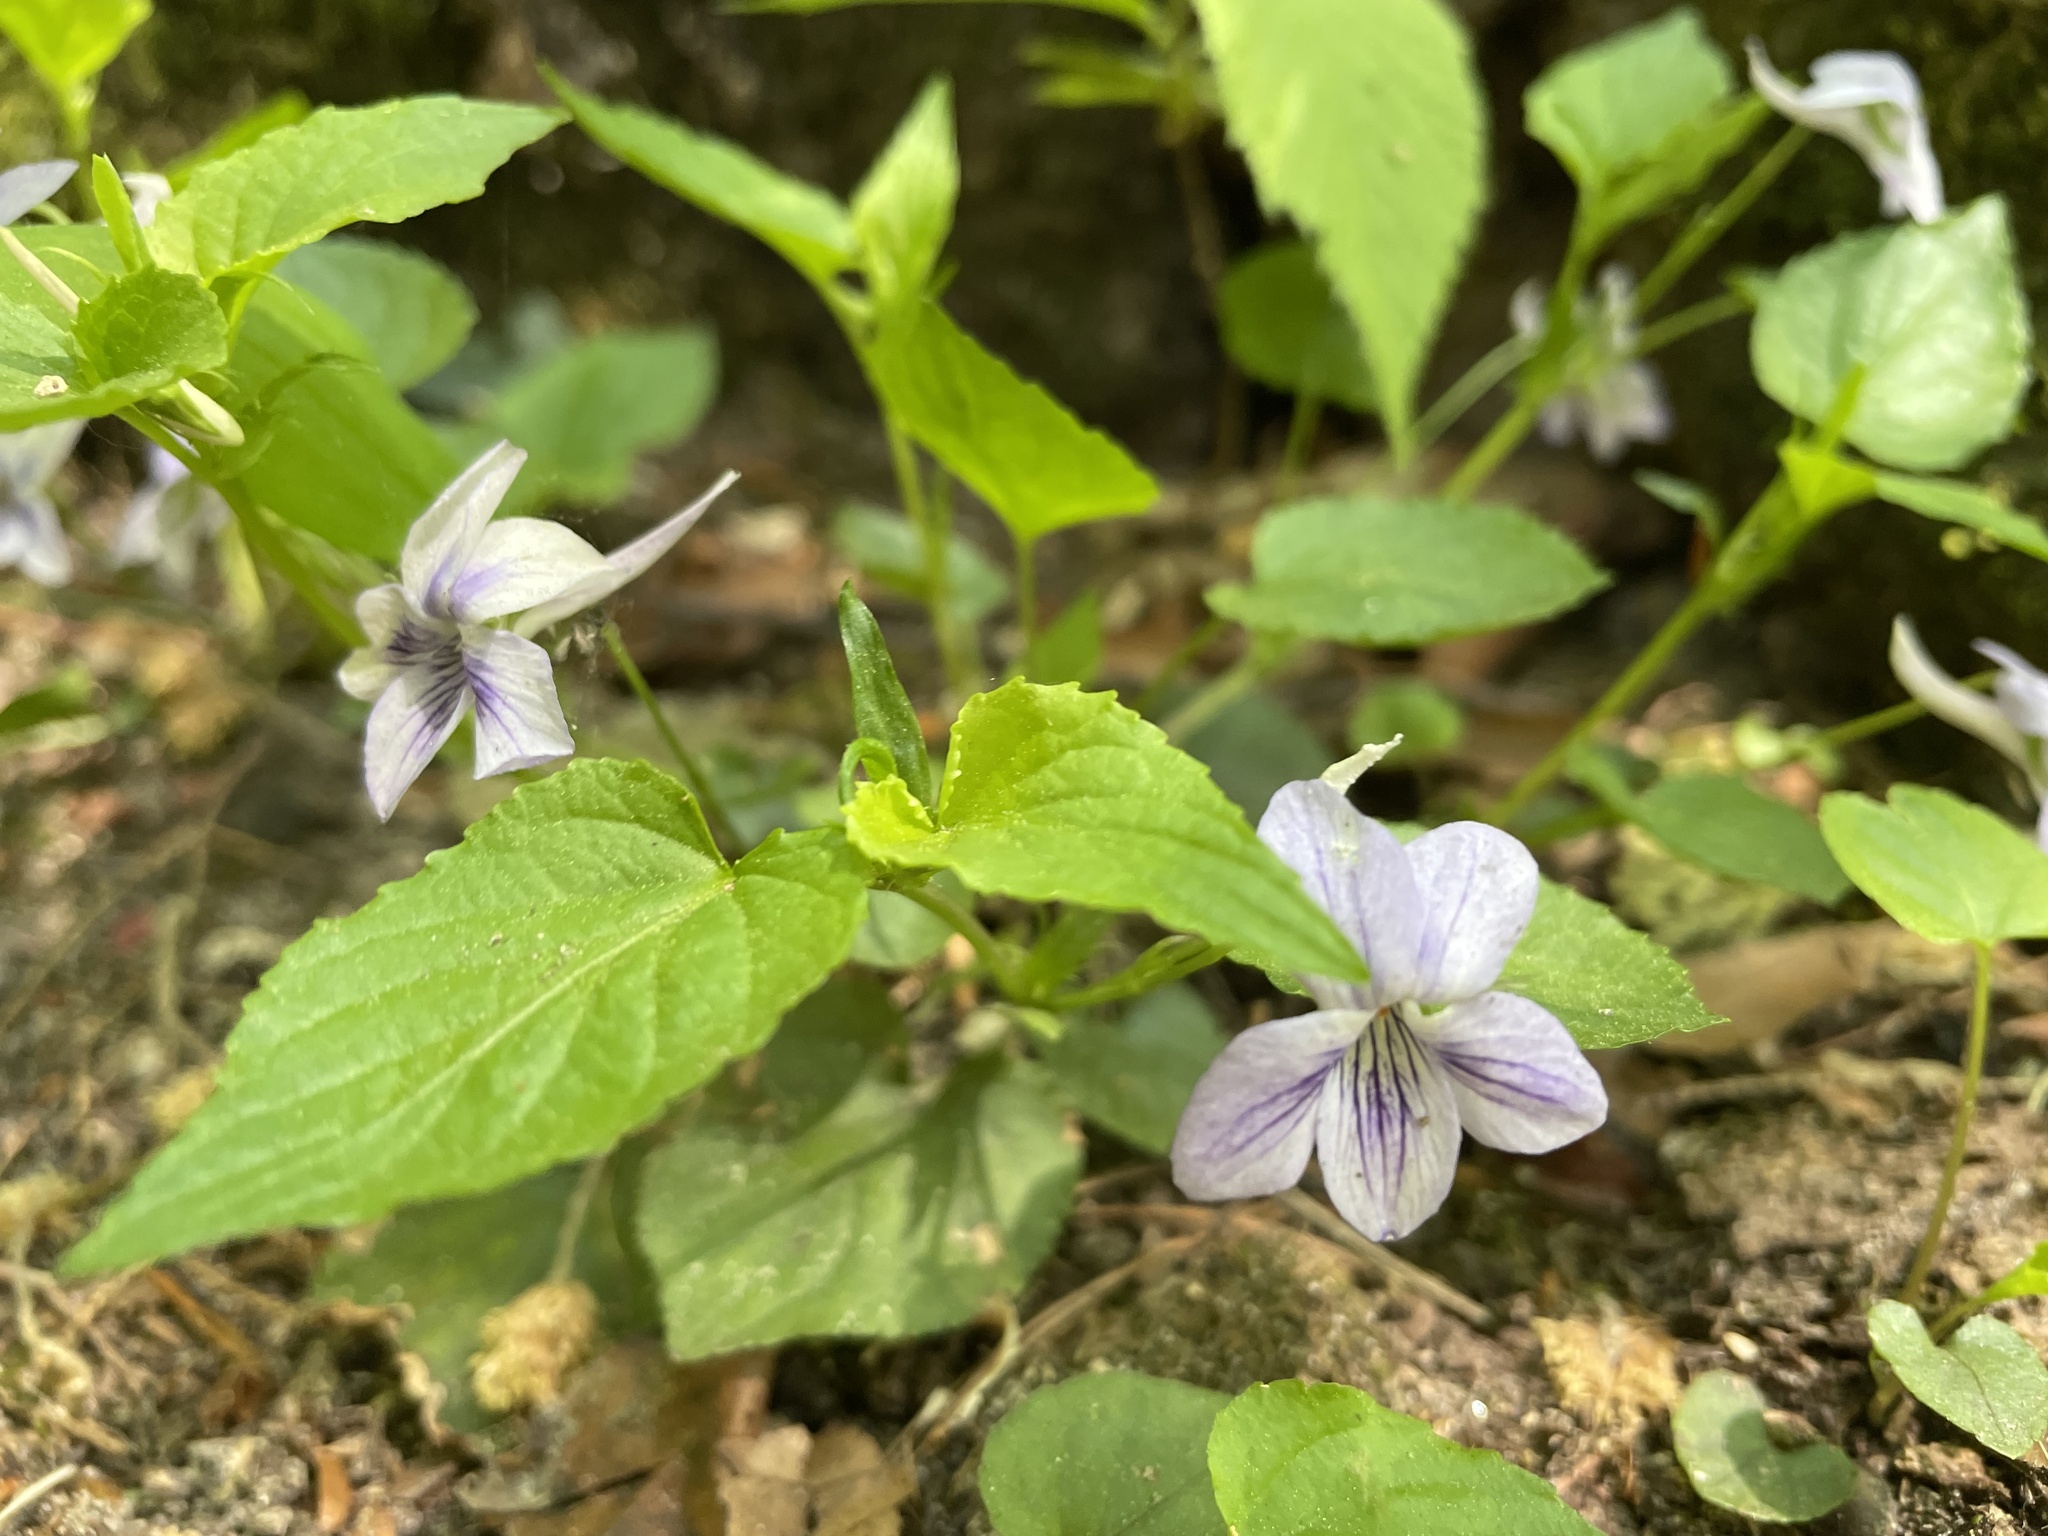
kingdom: Plantae
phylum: Tracheophyta
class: Magnoliopsida
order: Malpighiales
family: Violaceae
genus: Viola
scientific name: Viola rostrata
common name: Long-spur violet
